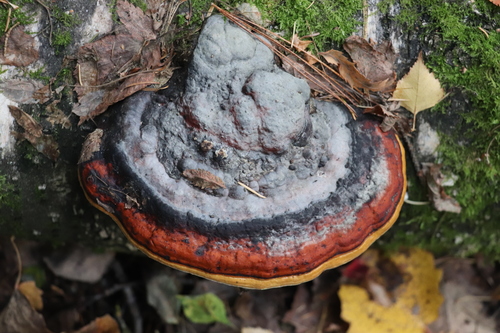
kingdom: Fungi
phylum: Basidiomycota
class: Agaricomycetes
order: Polyporales
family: Fomitopsidaceae
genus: Fomitopsis
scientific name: Fomitopsis pinicola
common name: Red-belted bracket
